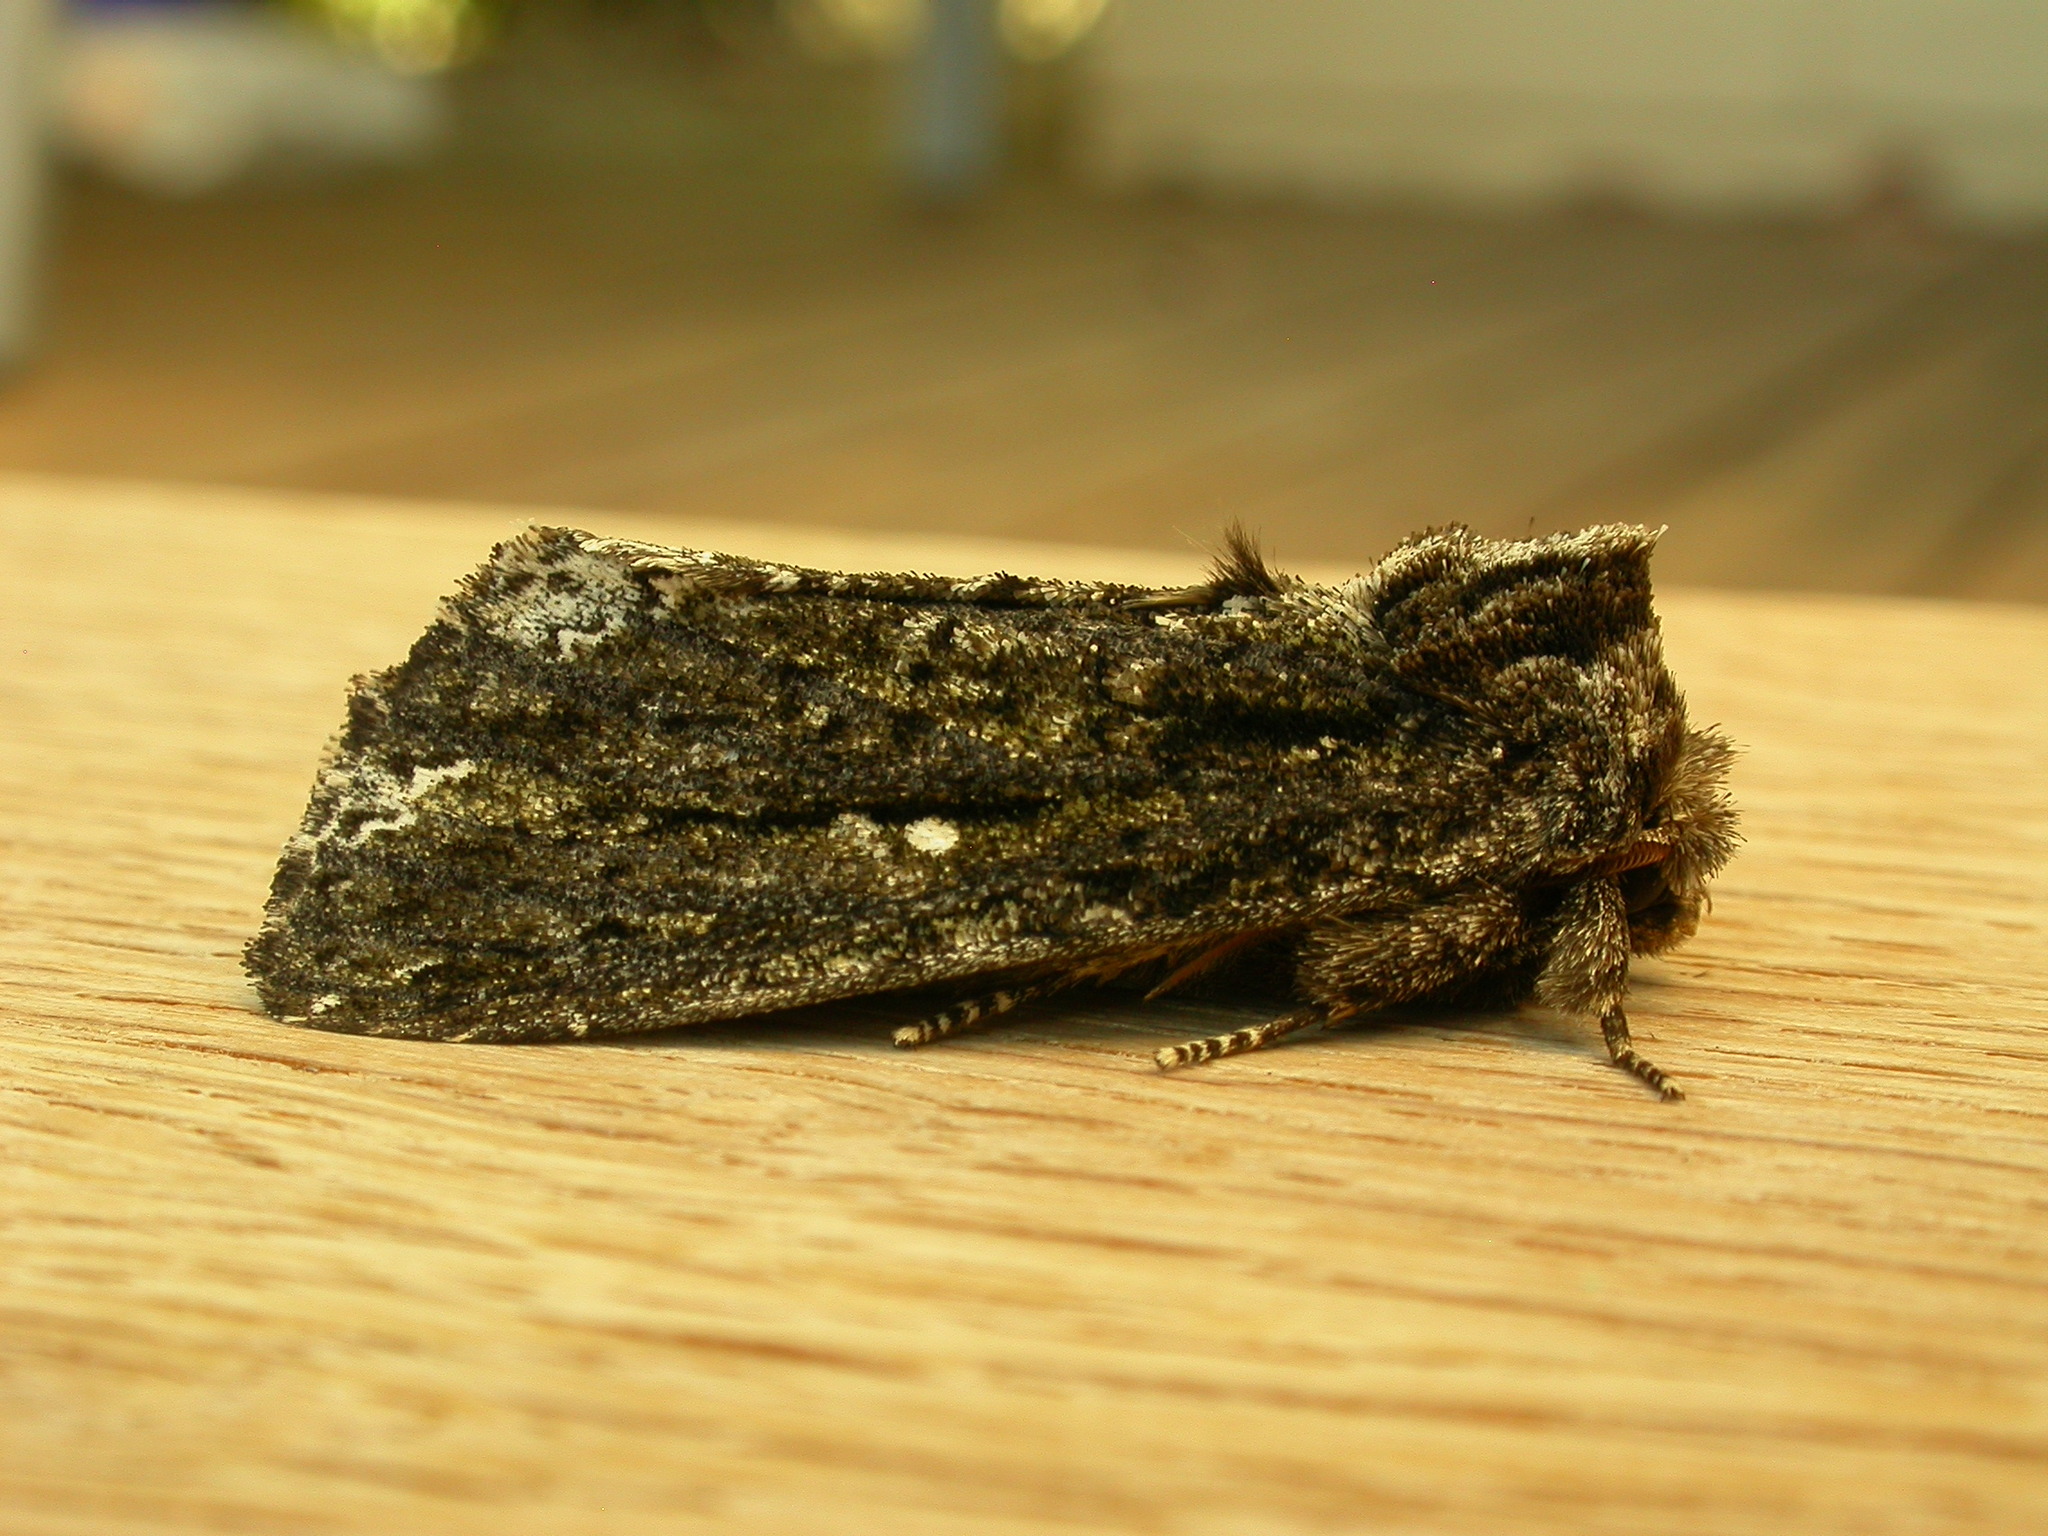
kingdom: Animalia
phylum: Arthropoda
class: Insecta
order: Lepidoptera
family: Notodontidae
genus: Neola
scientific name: Neola semiaurata
